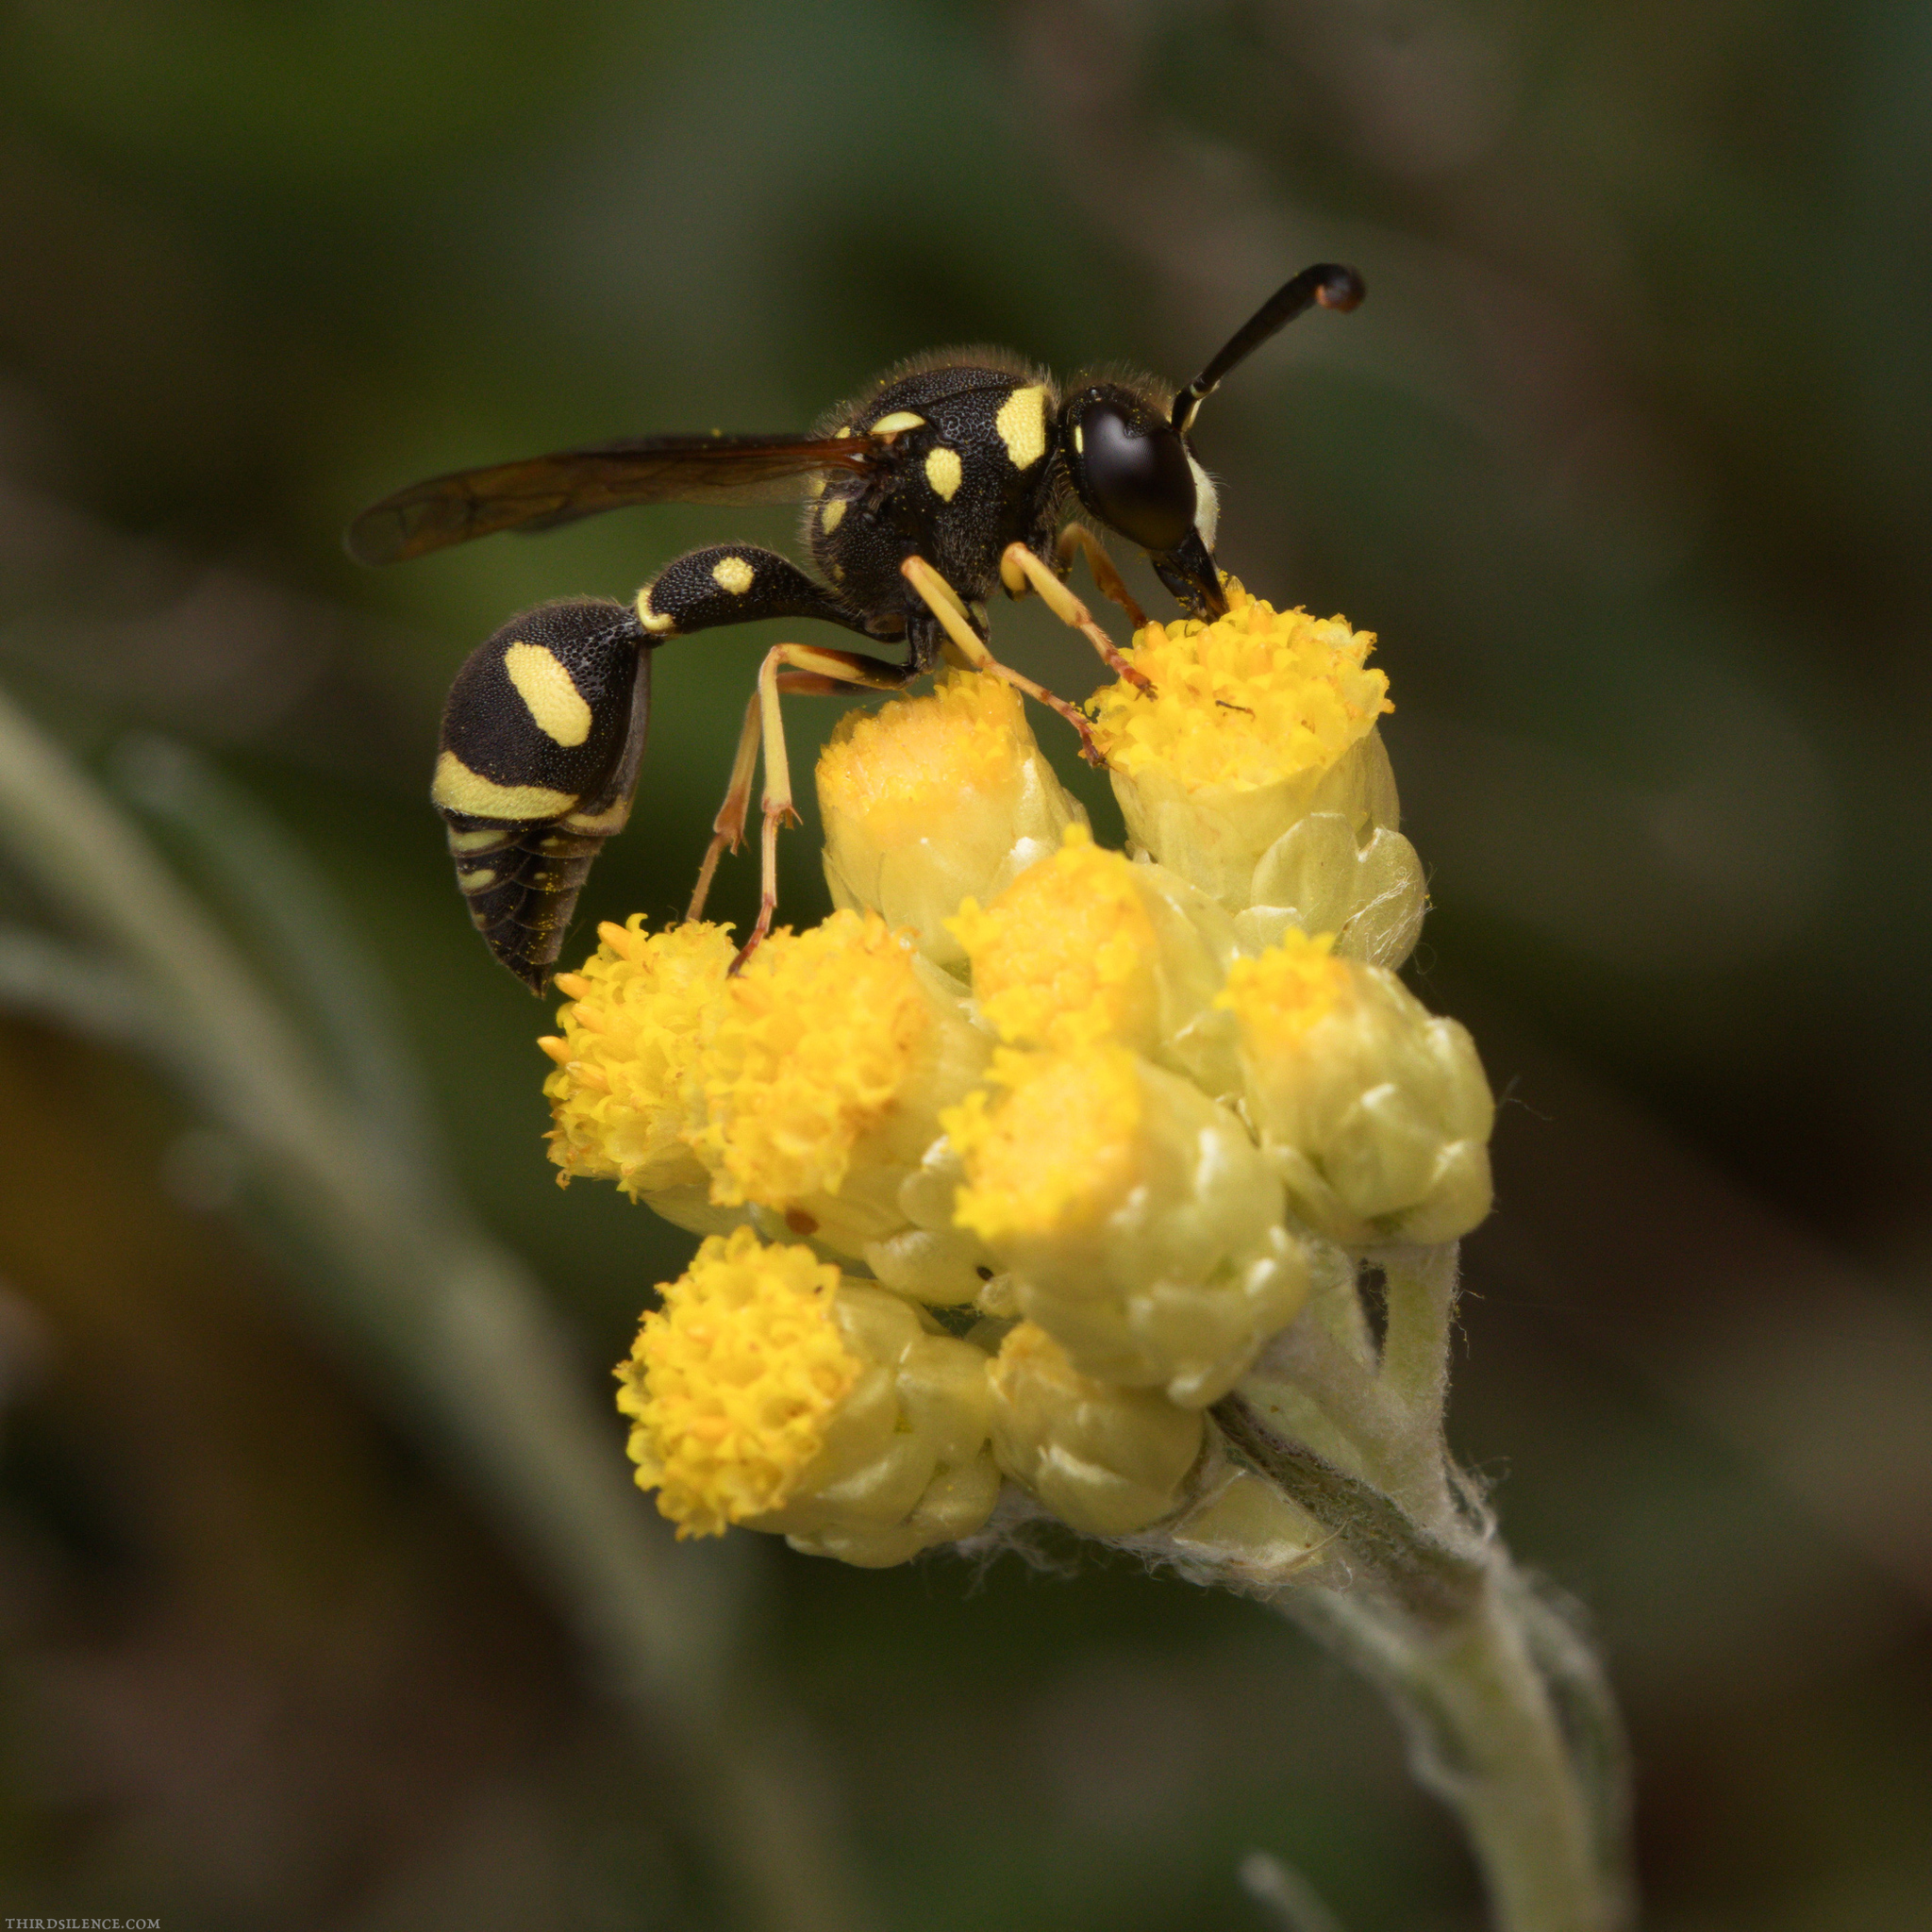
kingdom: Animalia
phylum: Arthropoda
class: Insecta
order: Hymenoptera
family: Vespidae
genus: Eumenes
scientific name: Eumenes mediterraneus
